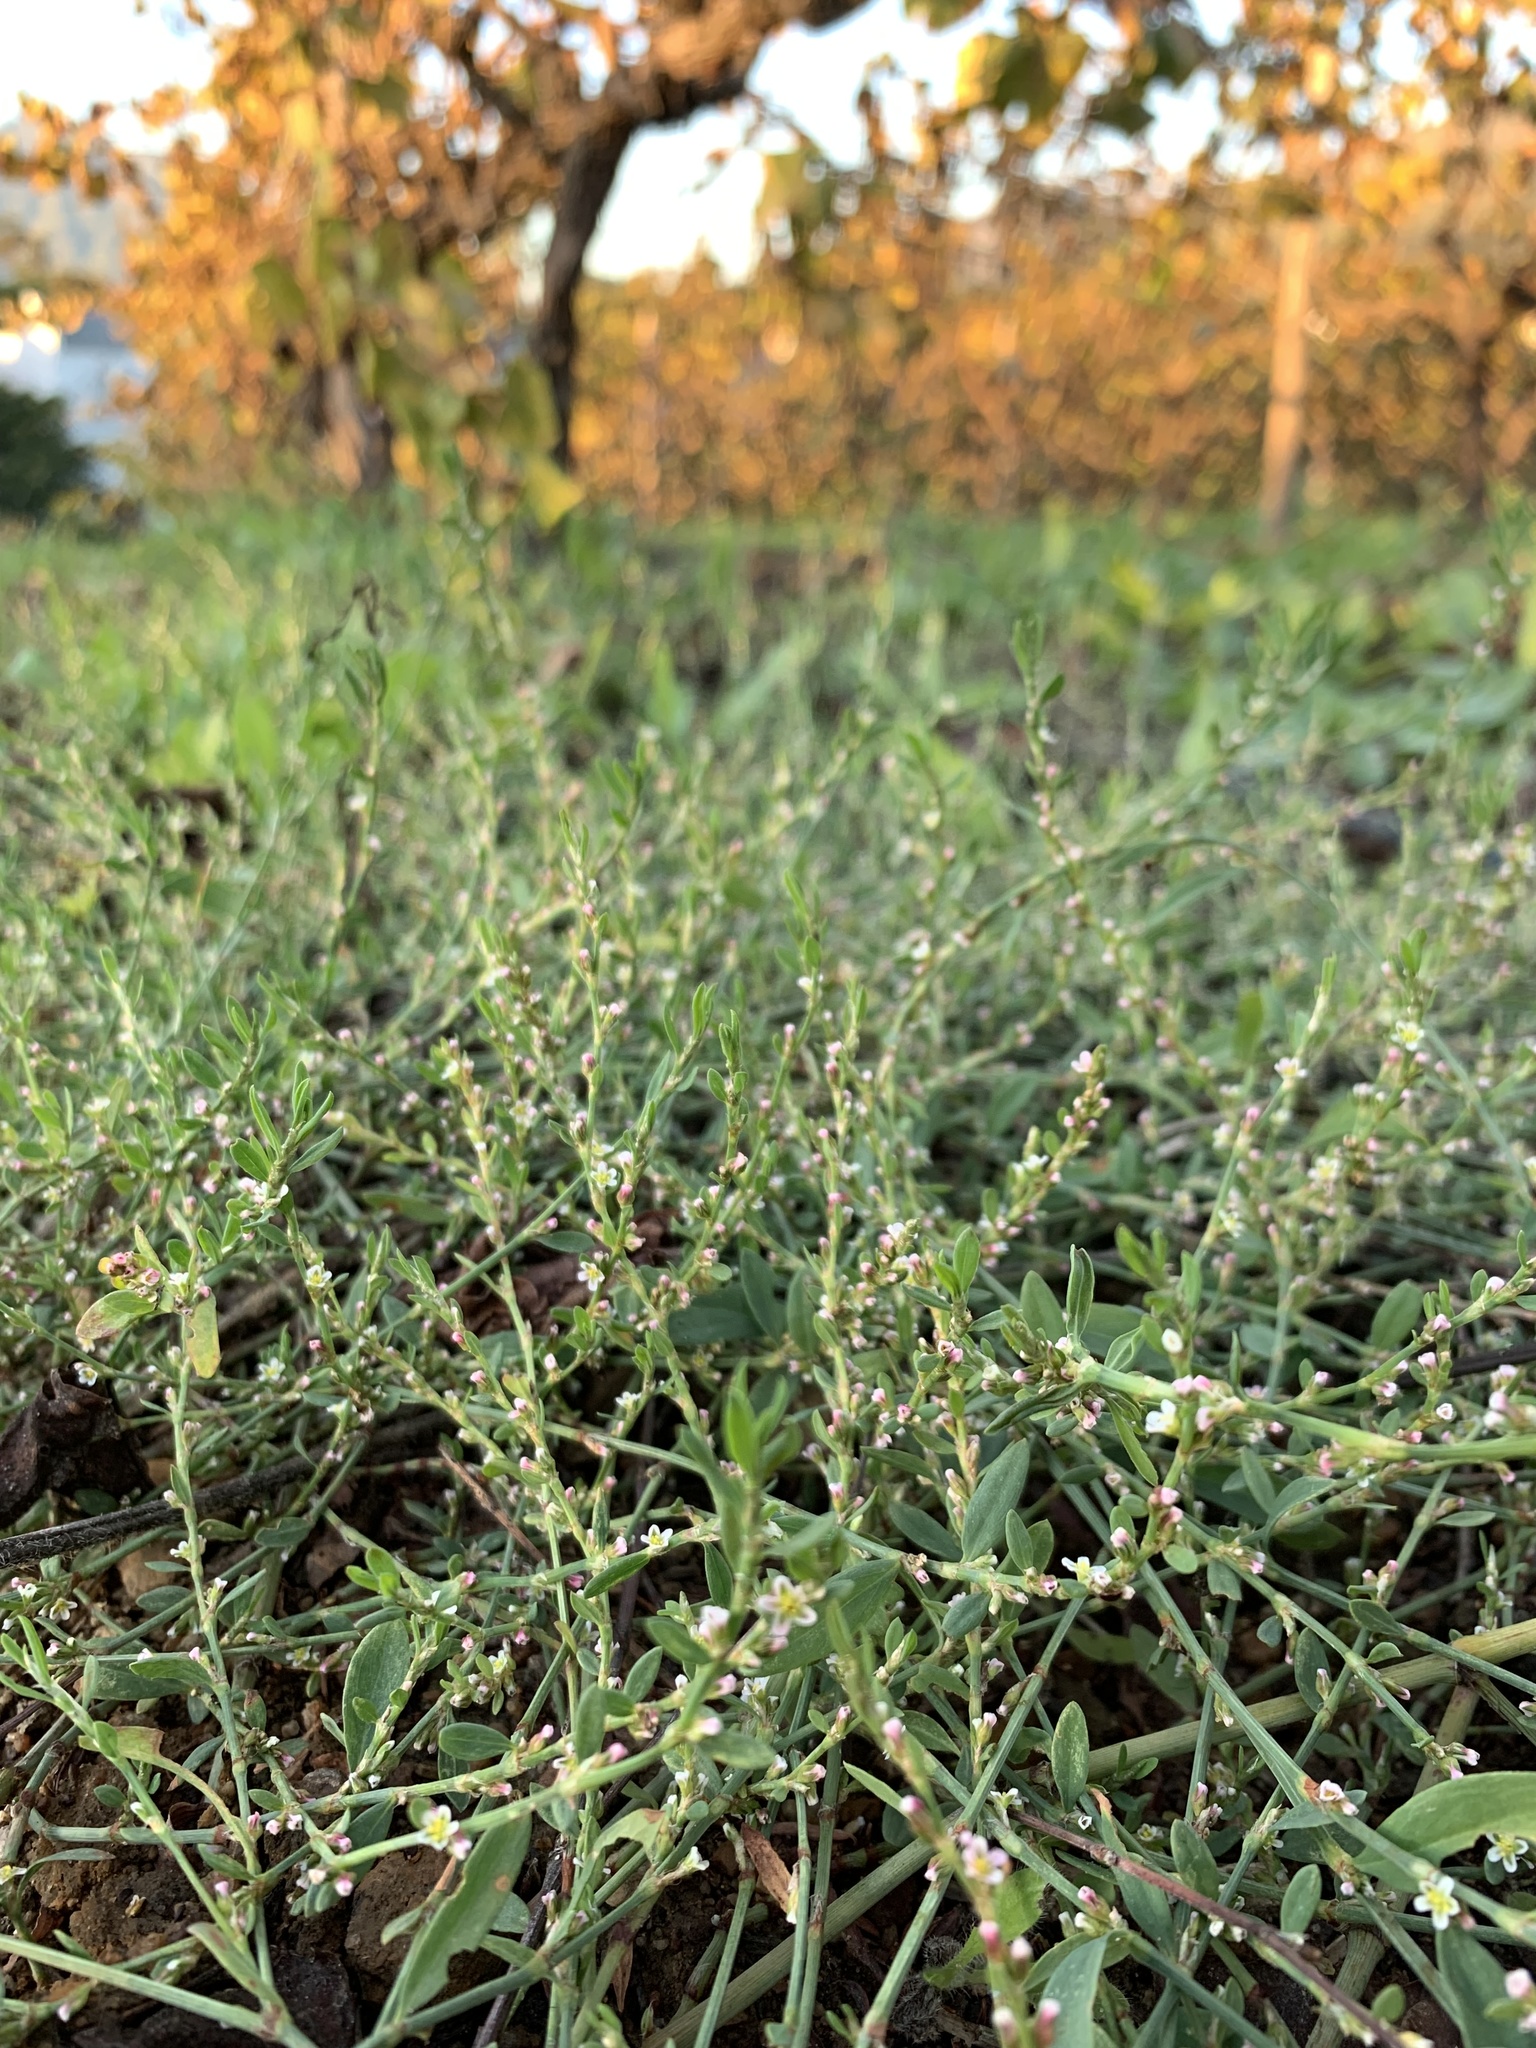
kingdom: Plantae
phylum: Tracheophyta
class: Magnoliopsida
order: Caryophyllales
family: Polygonaceae
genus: Polygonum
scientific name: Polygonum aviculare
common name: Prostrate knotweed
